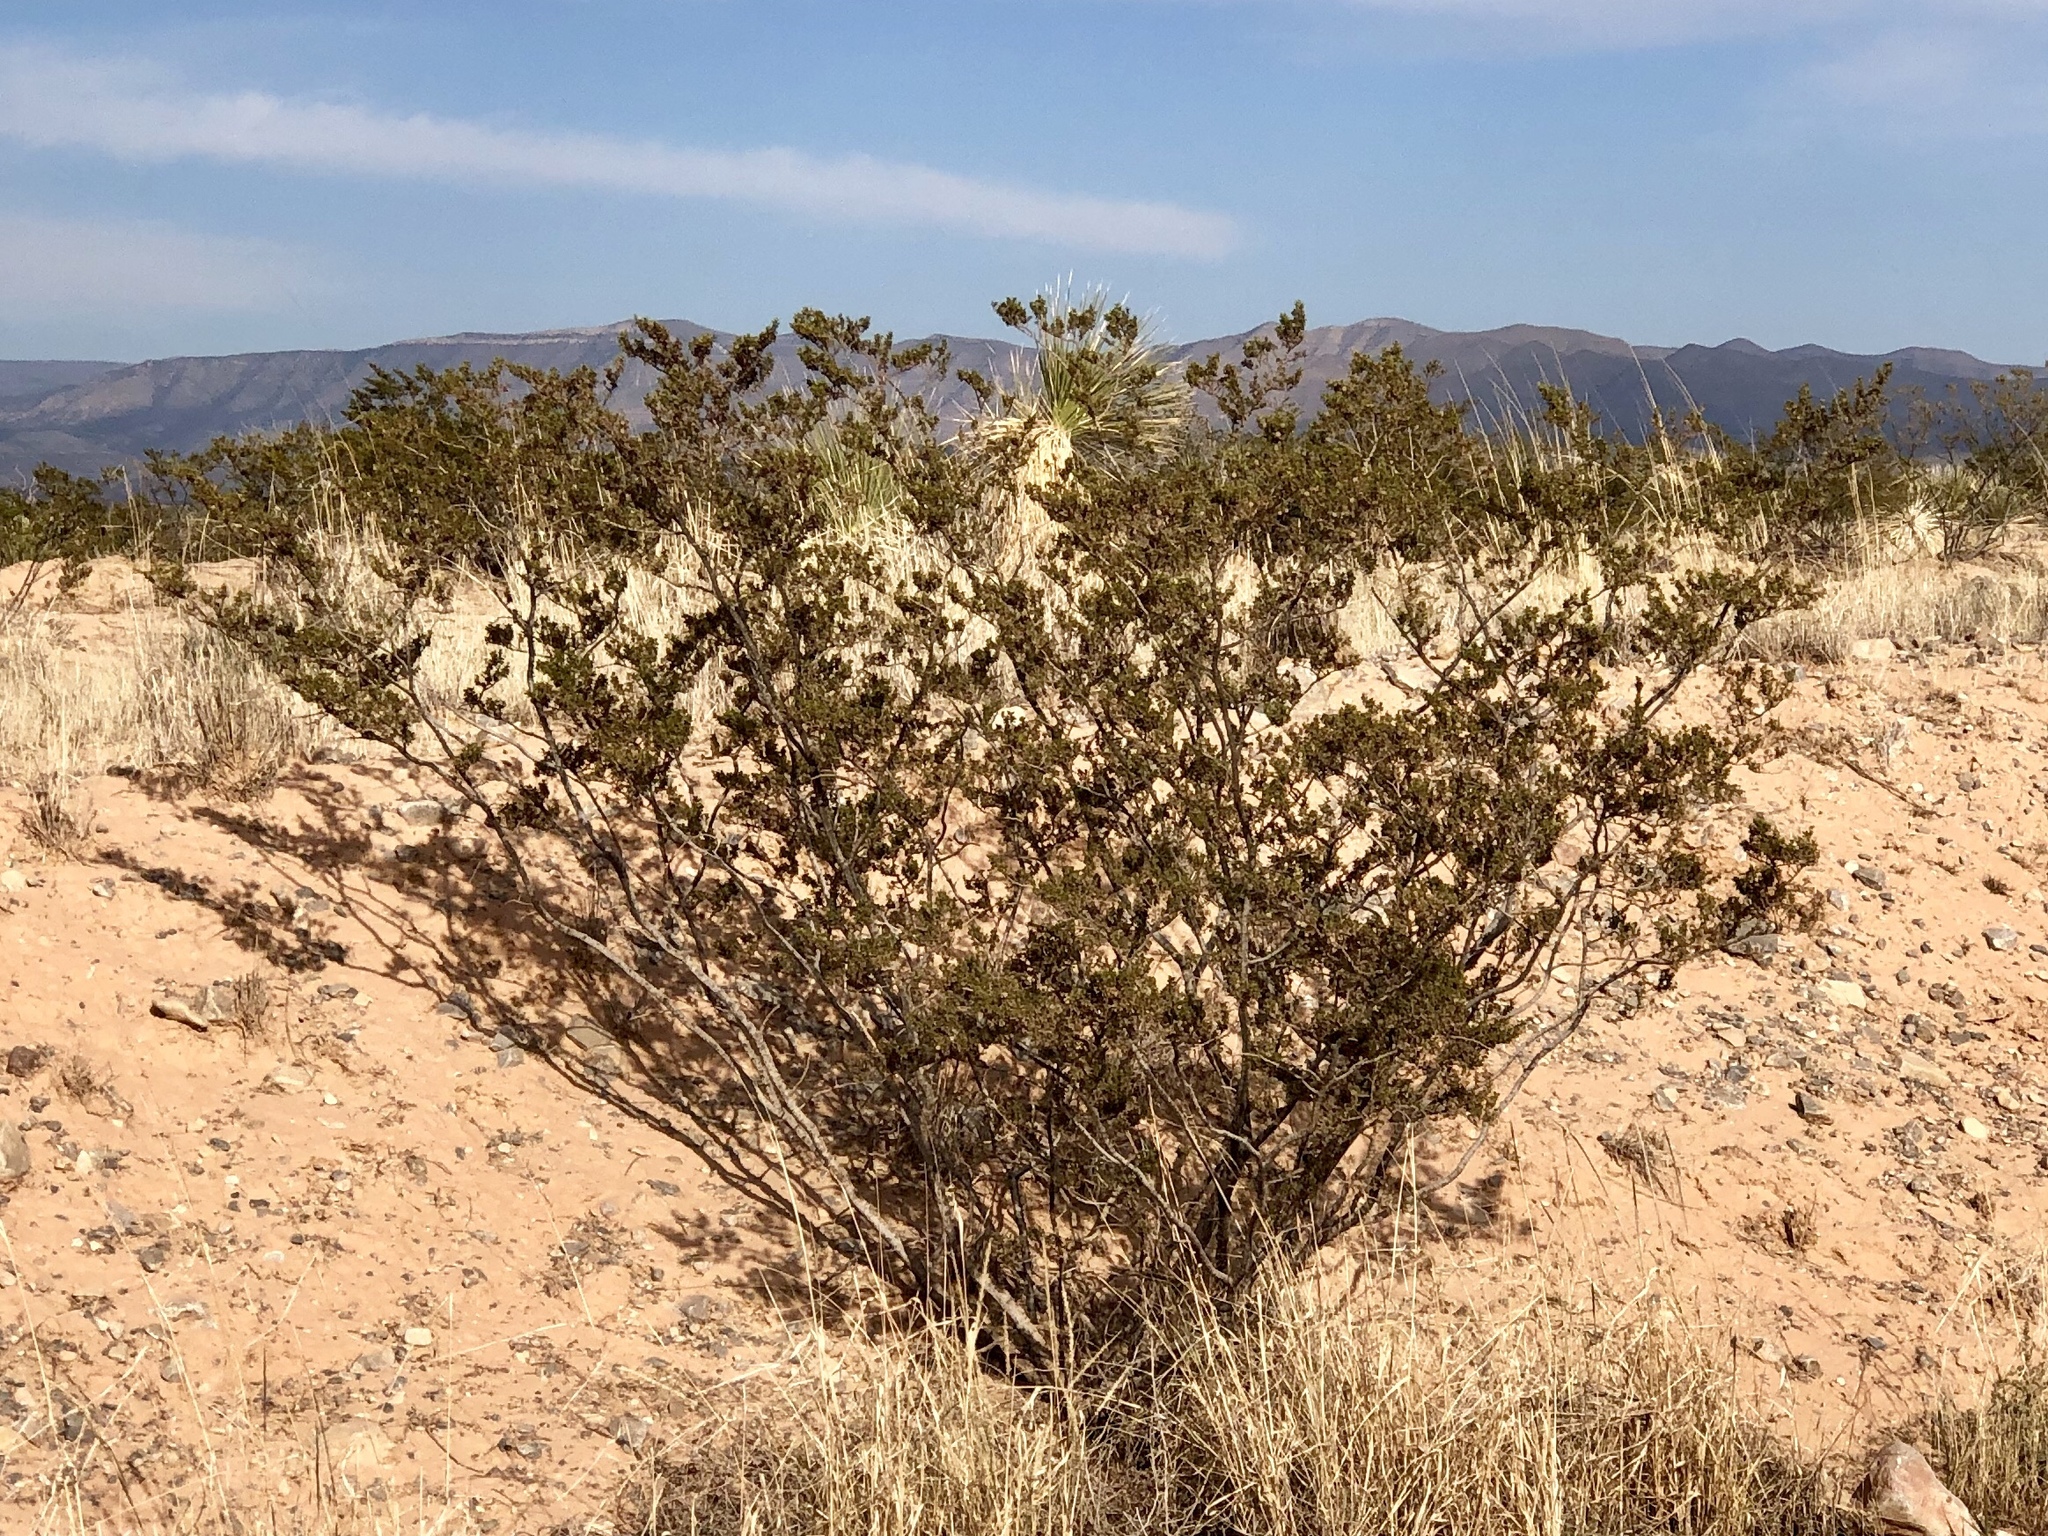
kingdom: Plantae
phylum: Tracheophyta
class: Magnoliopsida
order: Zygophyllales
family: Zygophyllaceae
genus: Larrea
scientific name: Larrea tridentata
